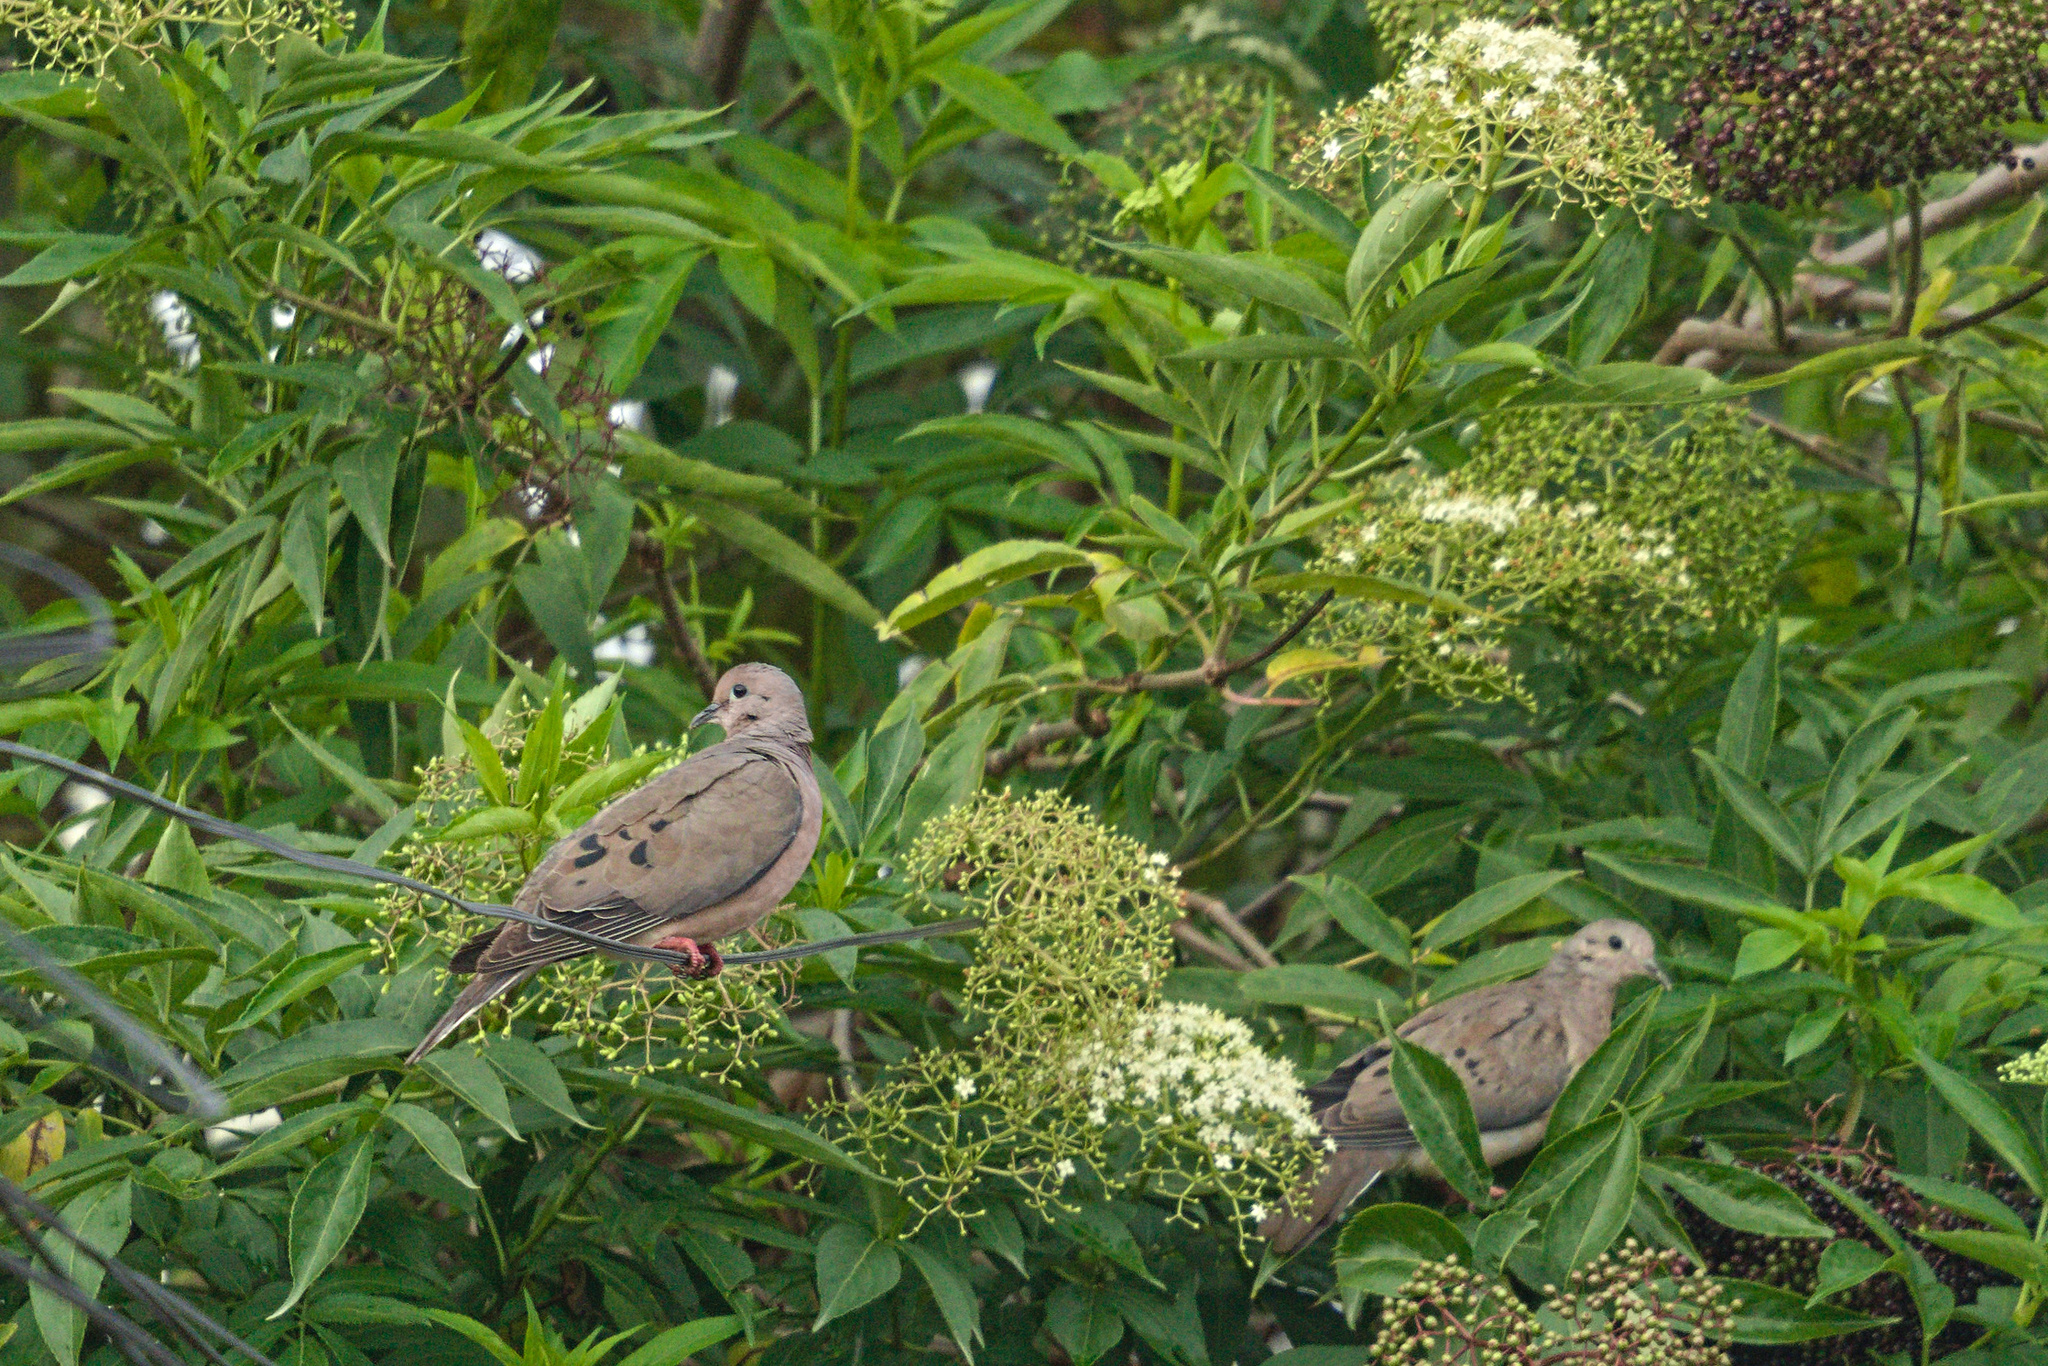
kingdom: Animalia
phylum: Chordata
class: Aves
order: Columbiformes
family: Columbidae
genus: Zenaida
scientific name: Zenaida auriculata
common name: Eared dove
